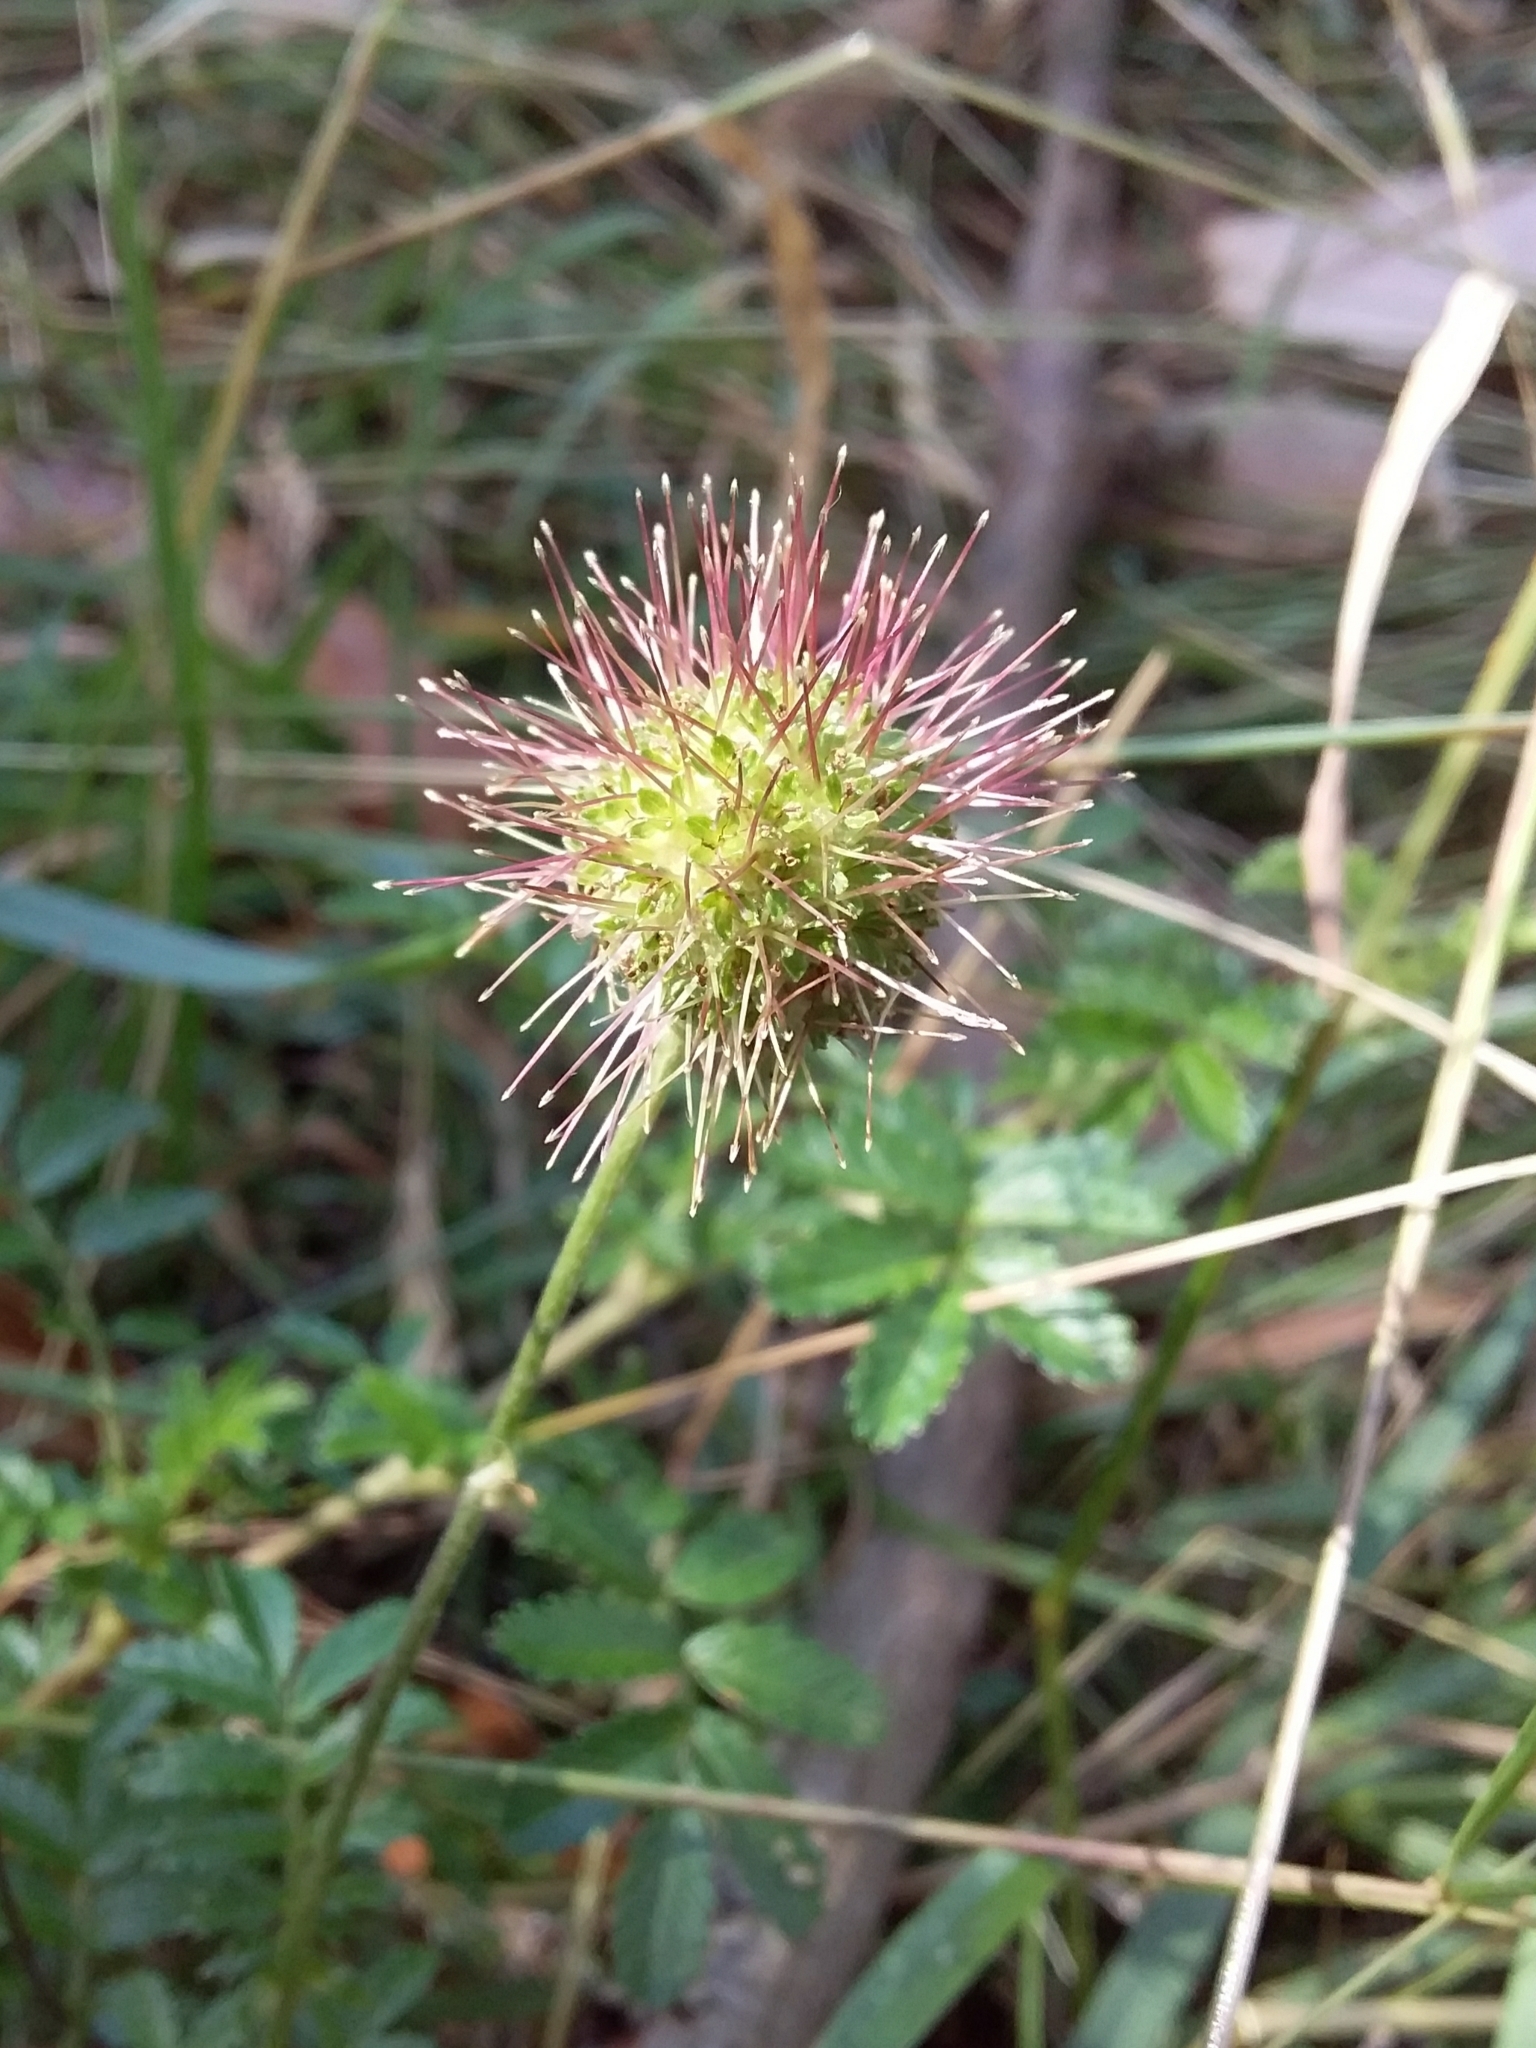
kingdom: Plantae
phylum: Tracheophyta
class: Magnoliopsida
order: Rosales
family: Rosaceae
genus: Acaena
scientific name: Acaena novae-zelandiae
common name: Pirri-pirri-bur
